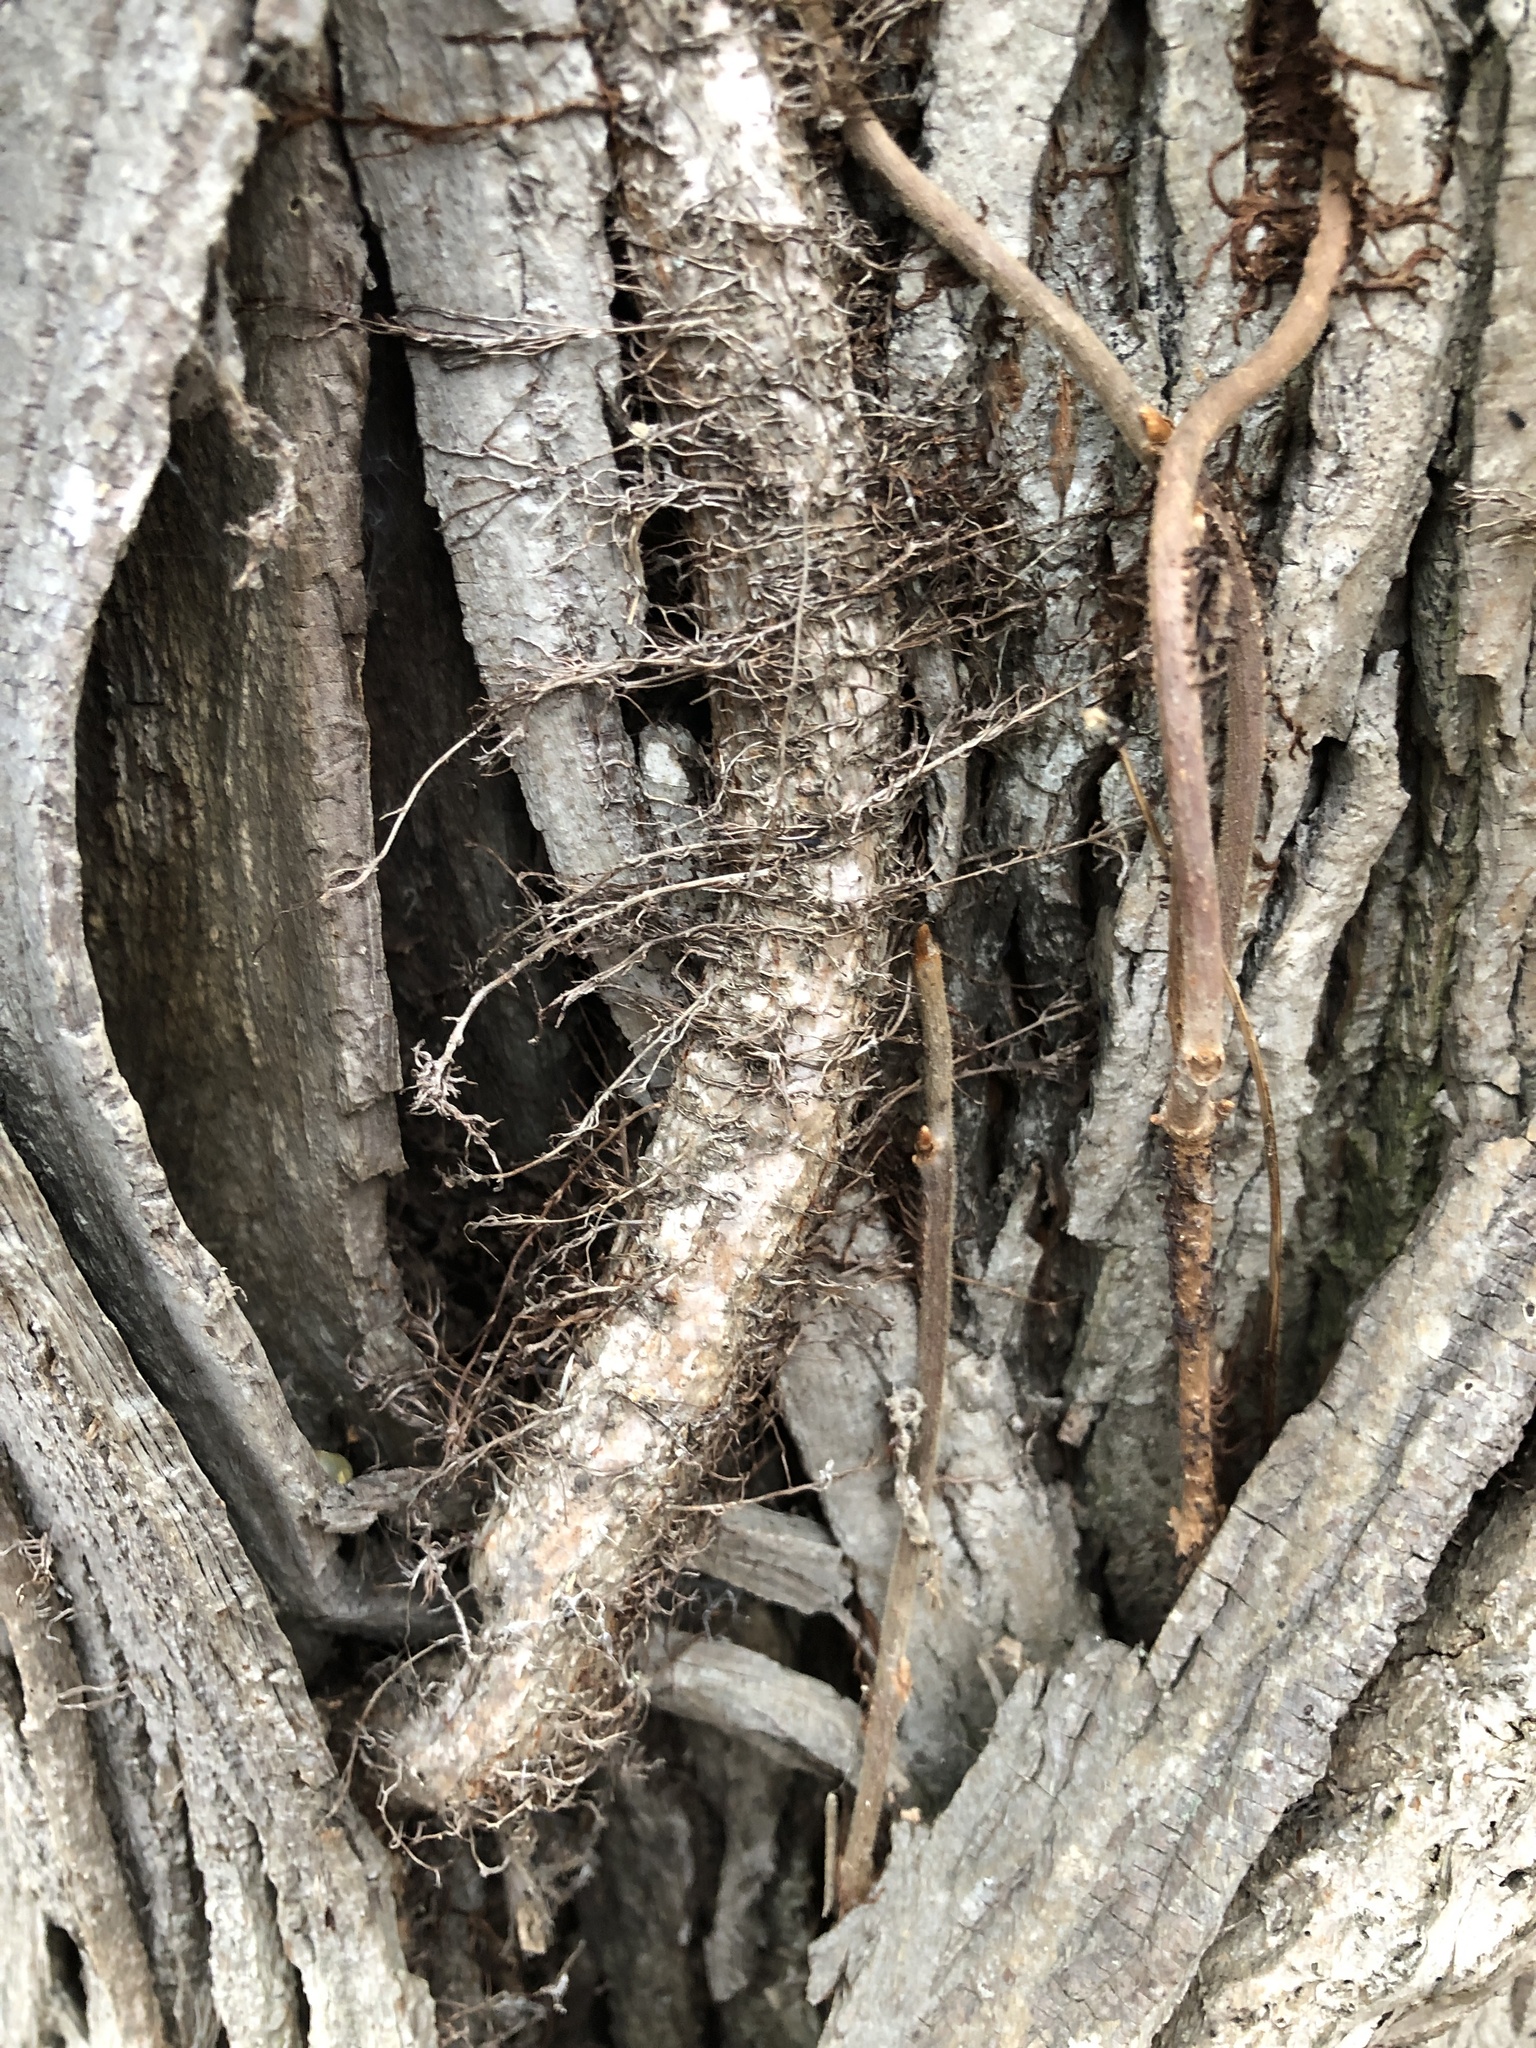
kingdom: Plantae
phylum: Tracheophyta
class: Magnoliopsida
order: Sapindales
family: Anacardiaceae
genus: Toxicodendron
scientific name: Toxicodendron radicans
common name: Poison ivy
